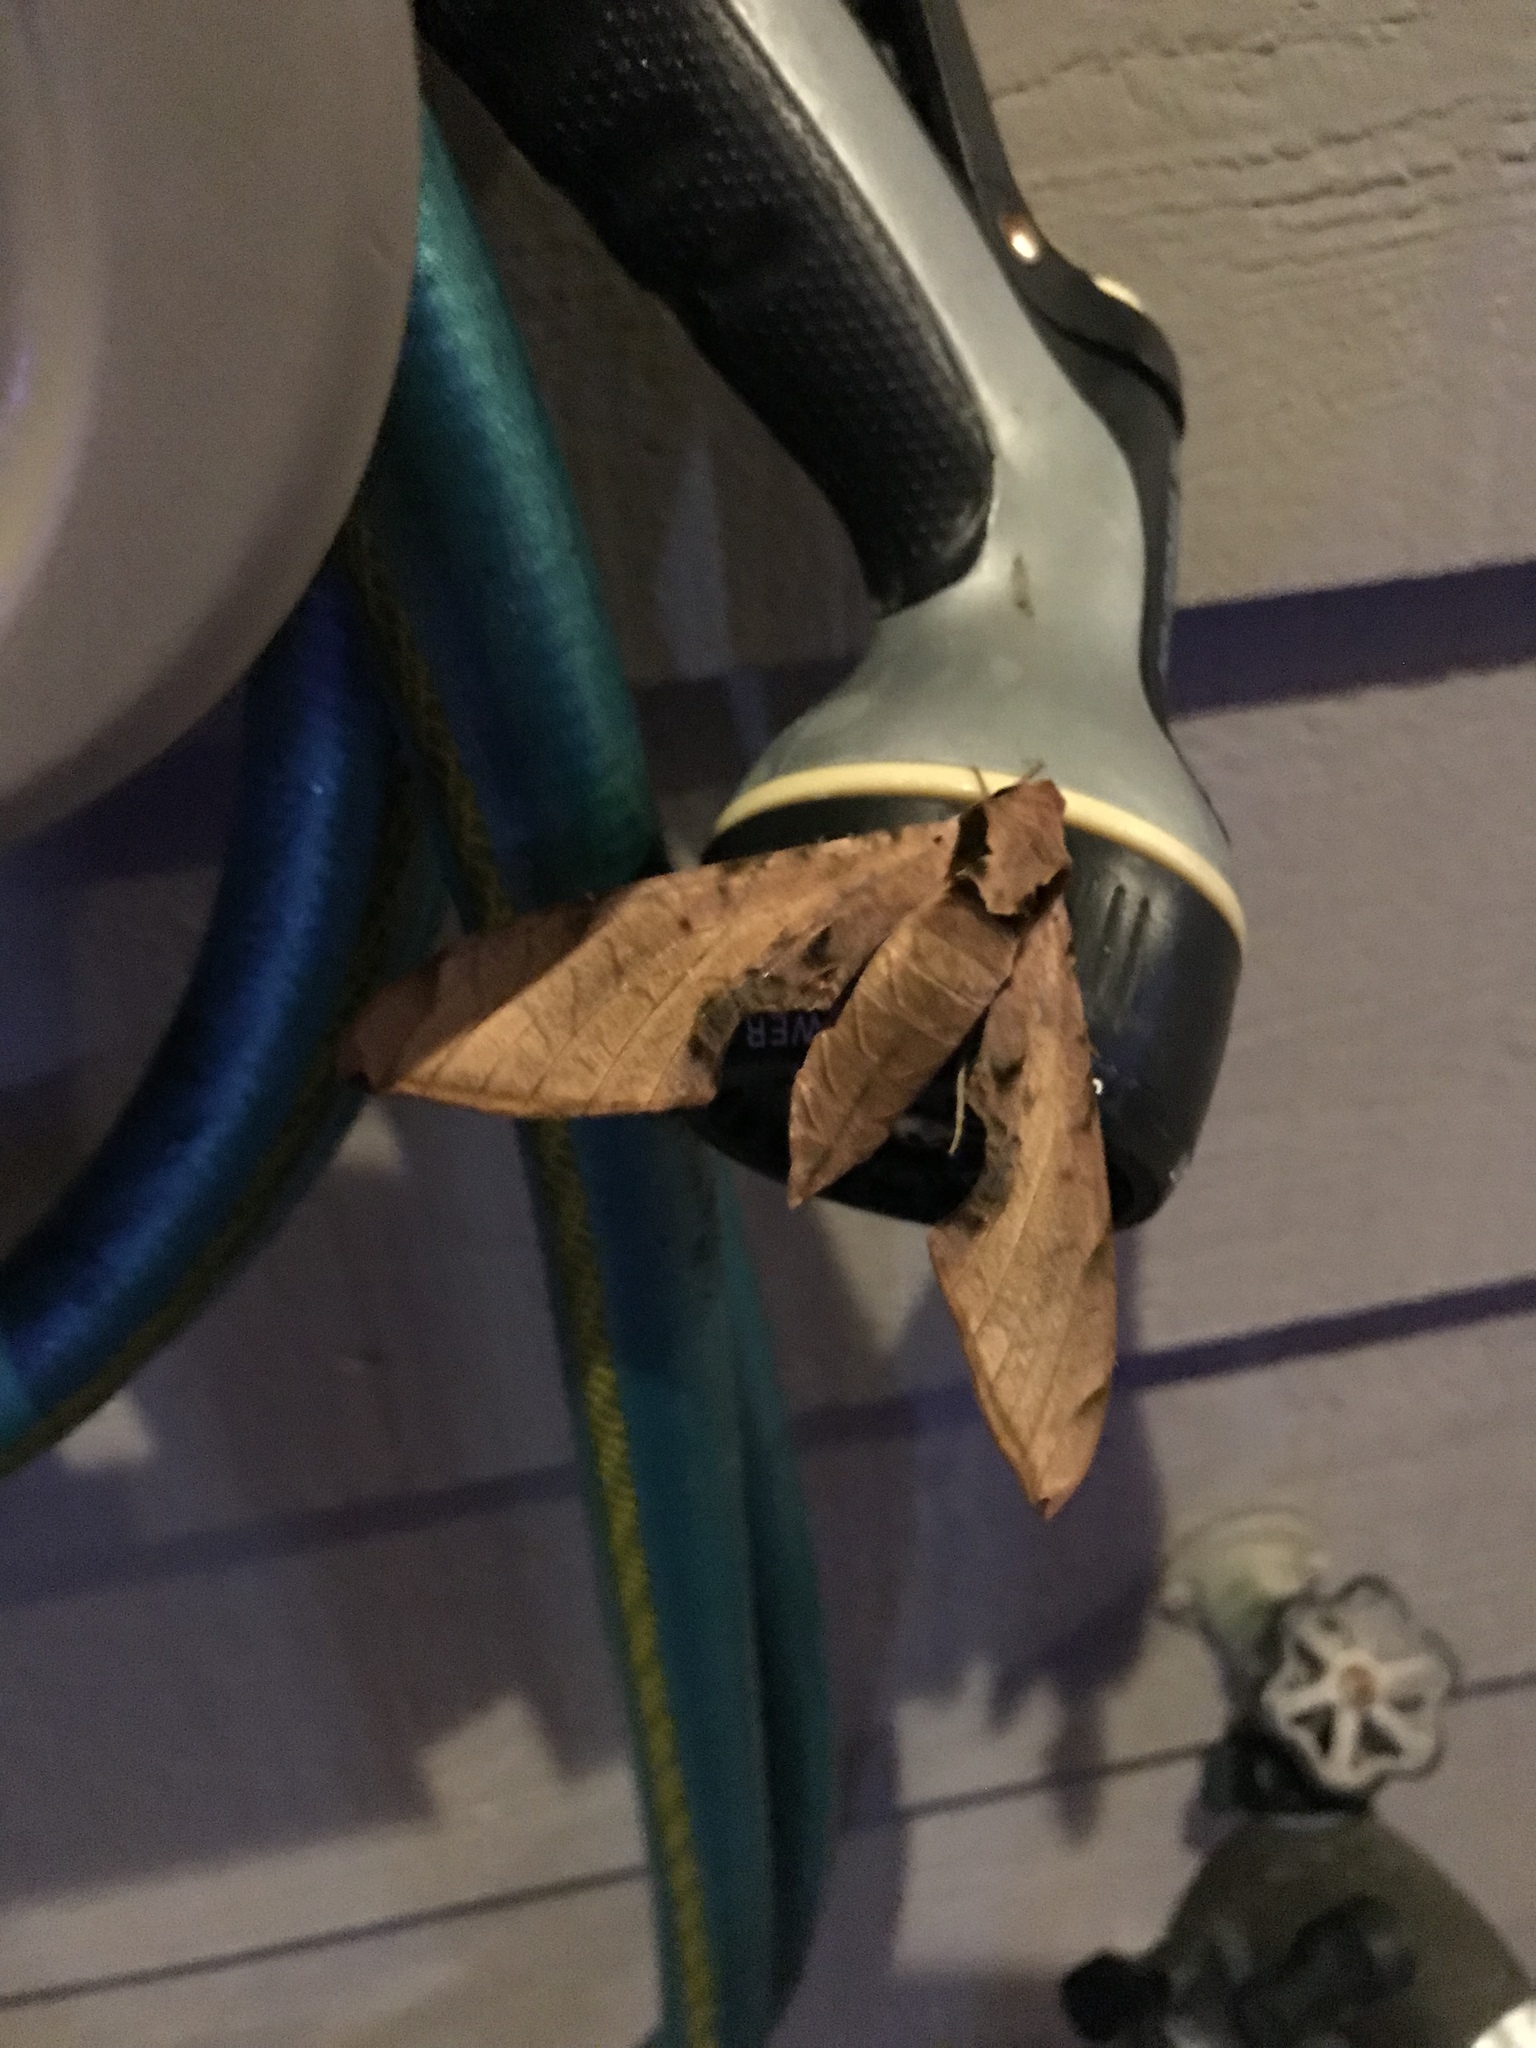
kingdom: Animalia
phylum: Arthropoda
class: Insecta
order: Lepidoptera
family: Sphingidae
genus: Protambulyx
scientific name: Protambulyx strigilis
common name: Streaked sphinx
